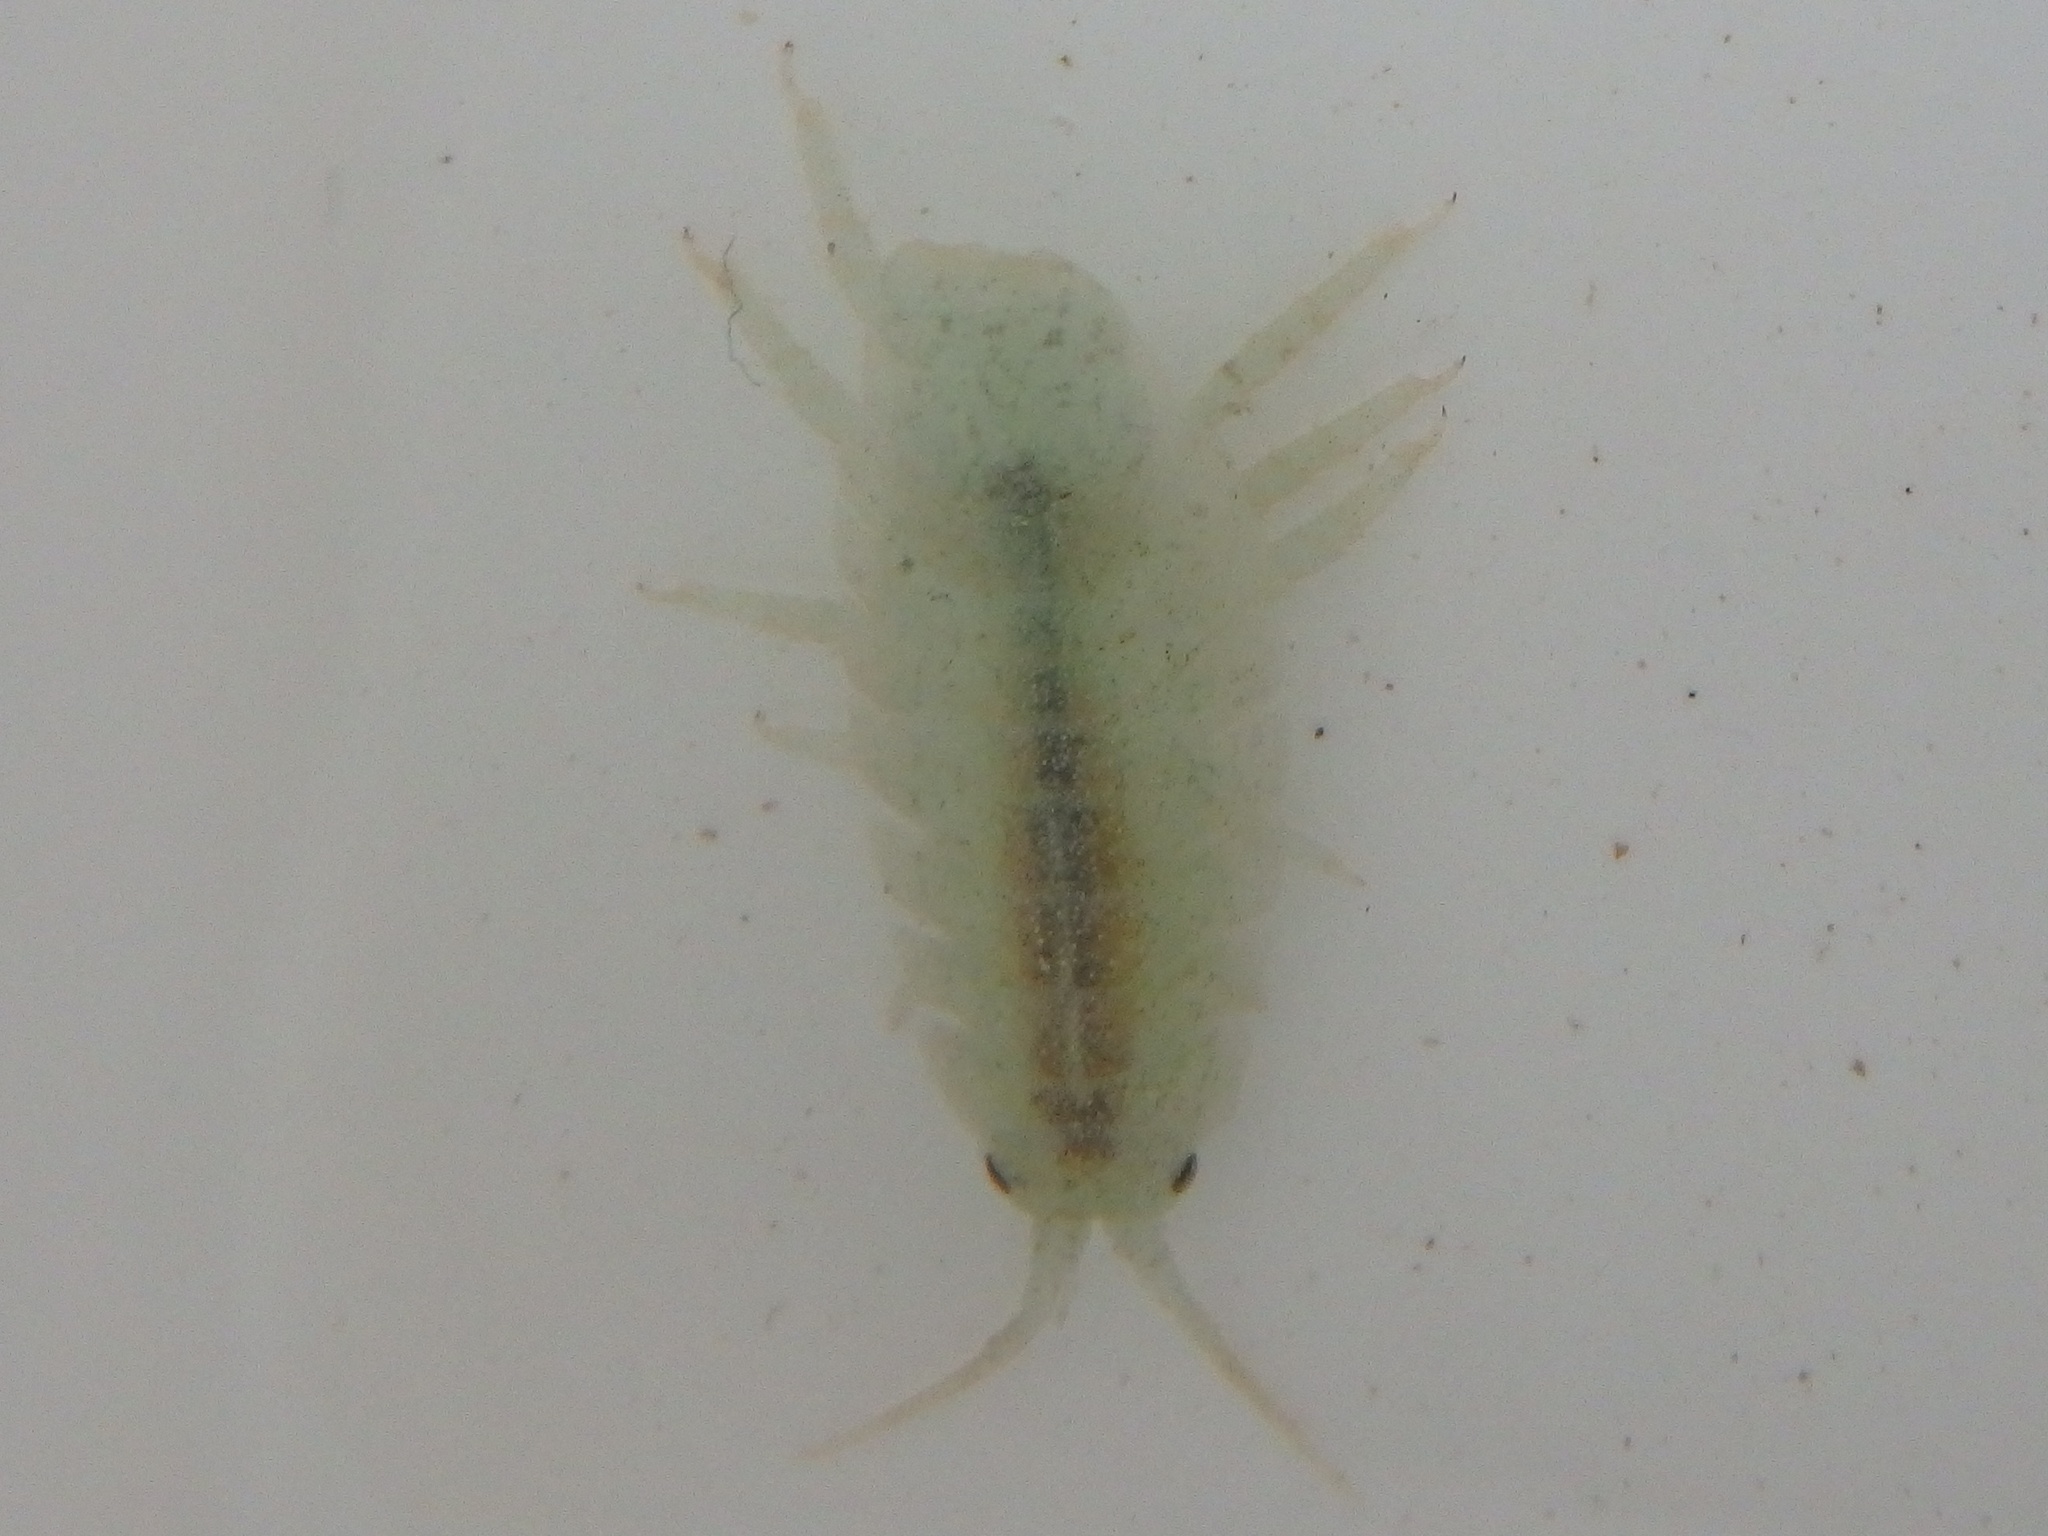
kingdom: Animalia
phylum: Arthropoda
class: Malacostraca
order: Isopoda
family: Idoteidae
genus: Idotea
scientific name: Idotea emarginata
